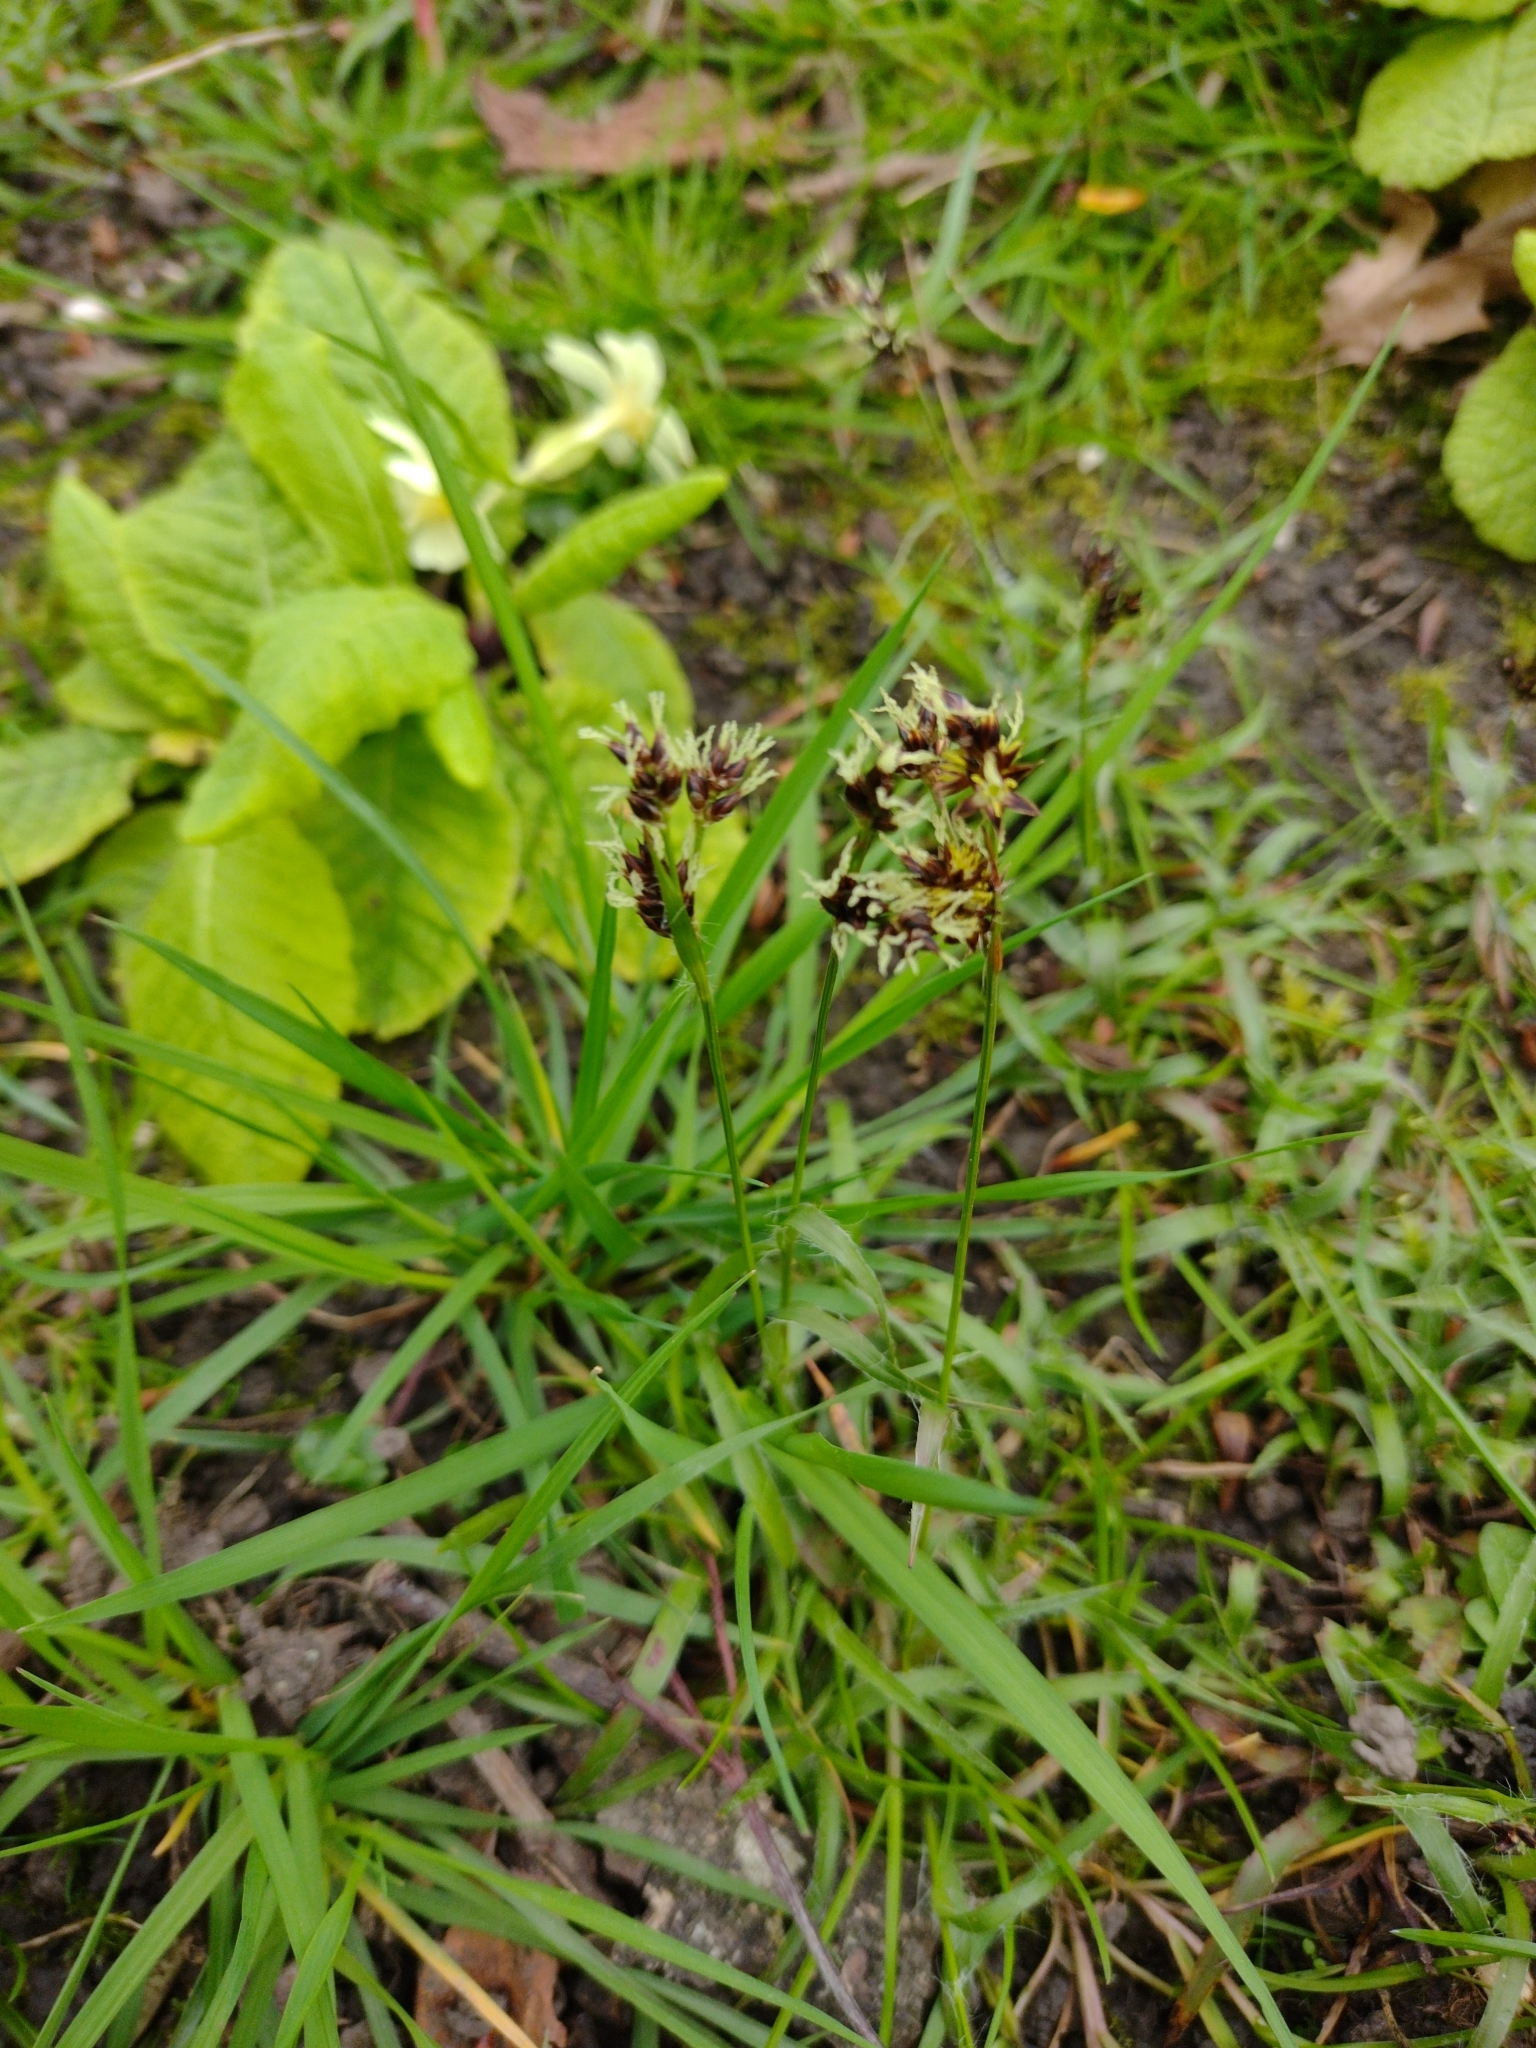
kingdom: Plantae
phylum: Tracheophyta
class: Liliopsida
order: Poales
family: Juncaceae
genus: Luzula
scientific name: Luzula campestris
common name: Field wood-rush
